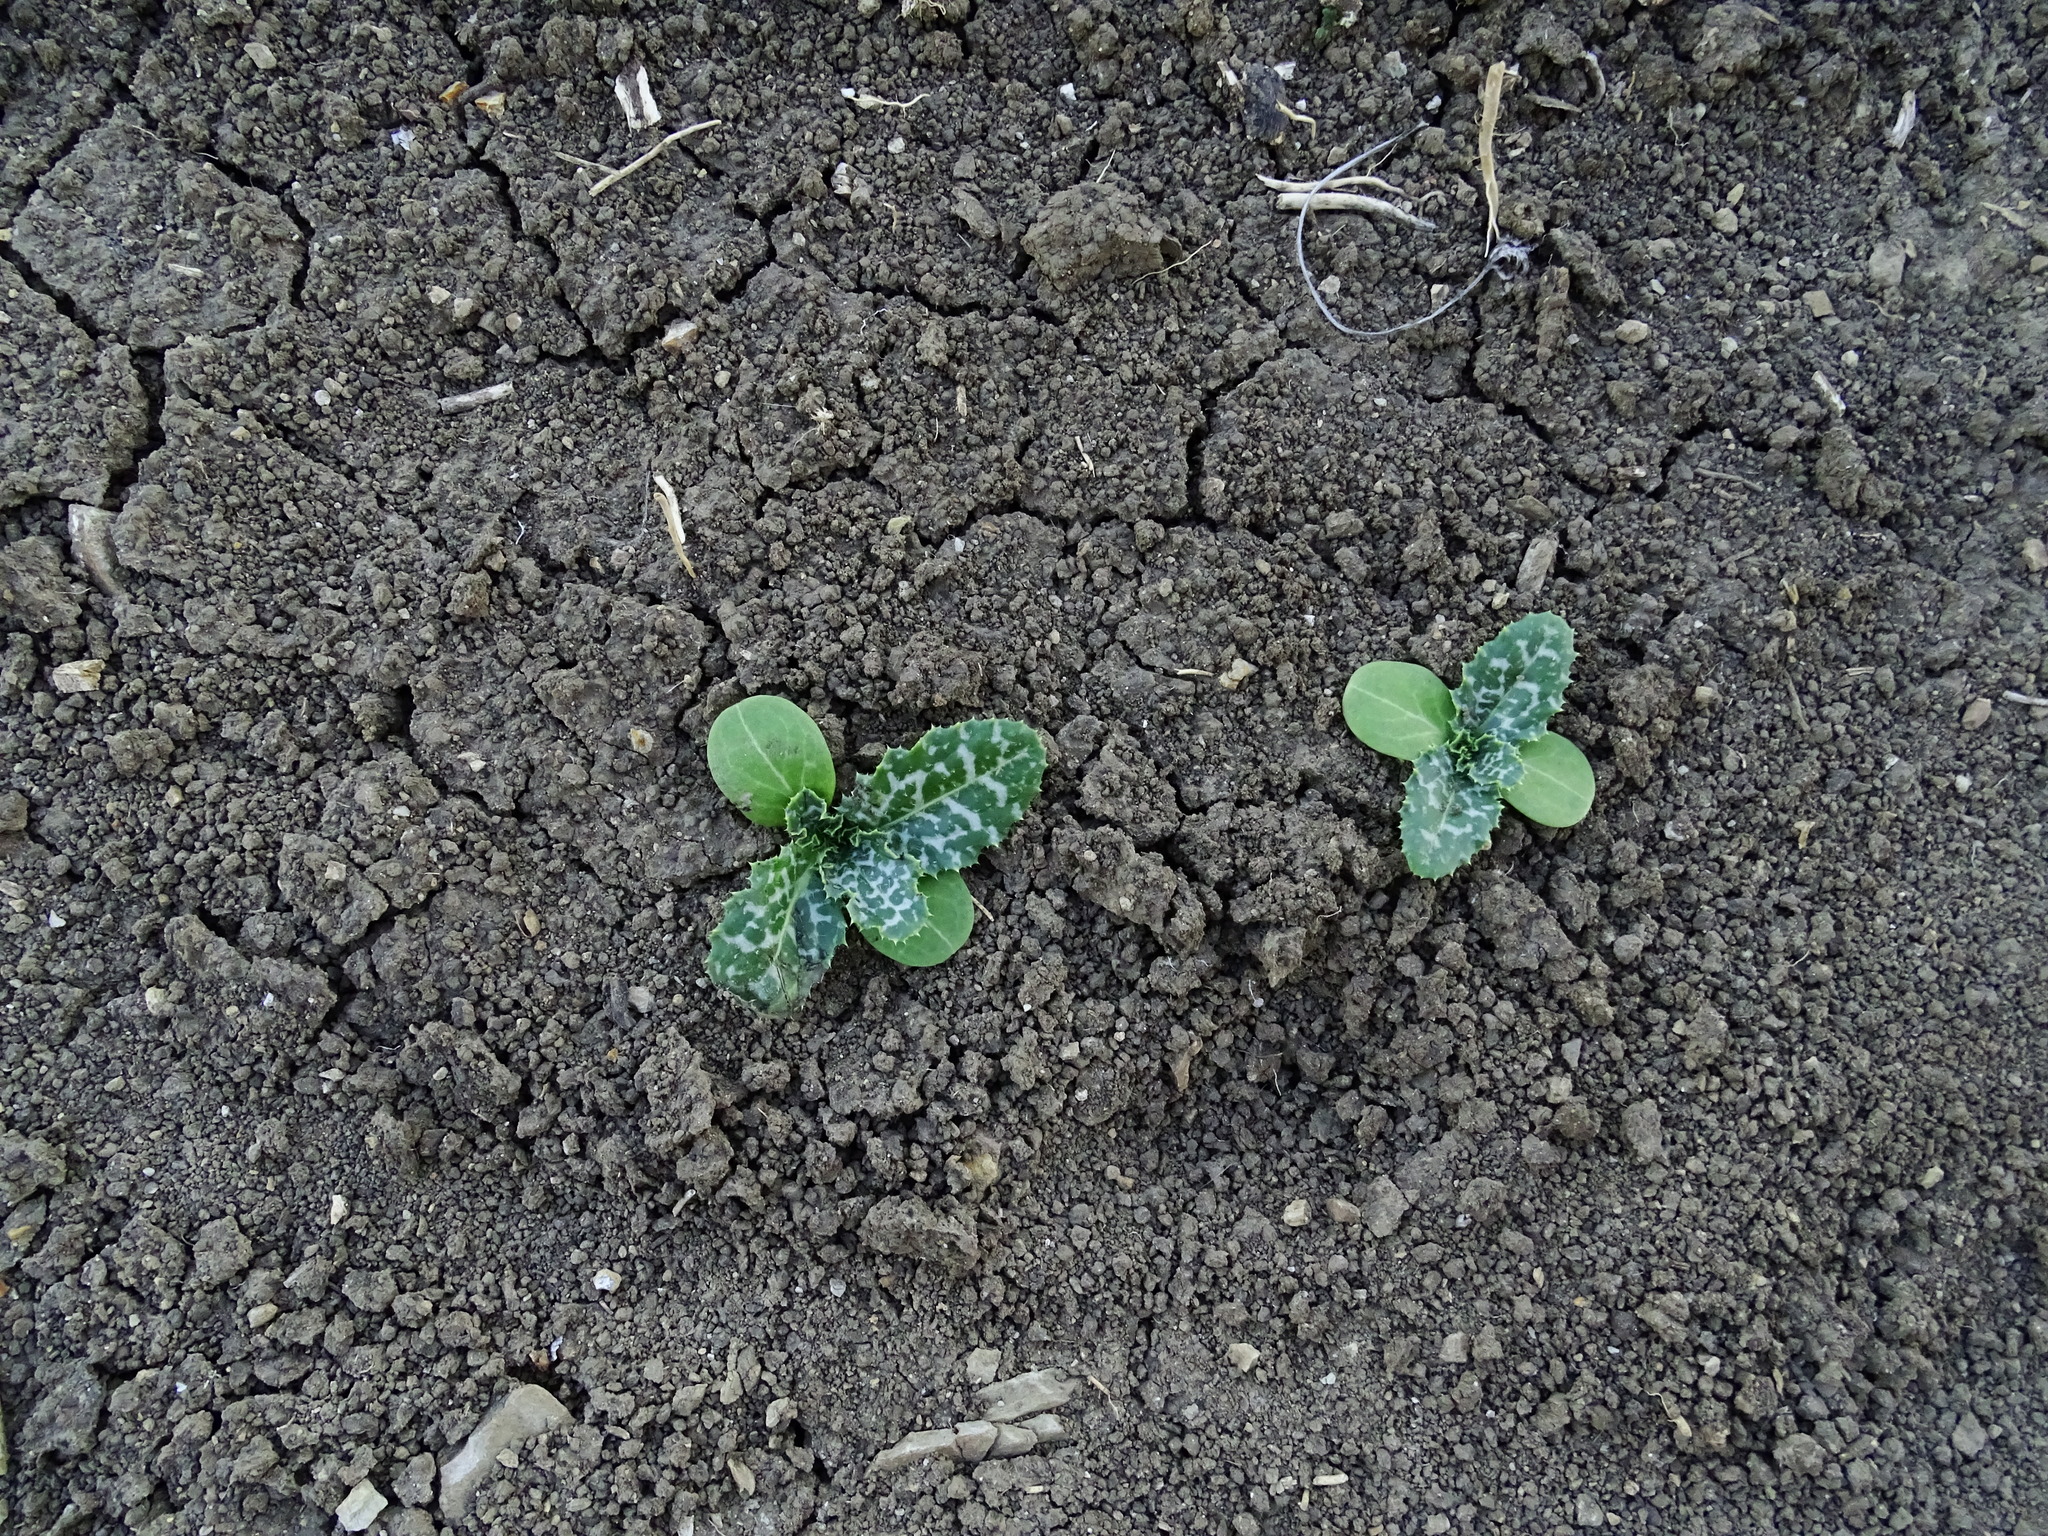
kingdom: Plantae
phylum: Tracheophyta
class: Magnoliopsida
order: Asterales
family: Asteraceae
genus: Silybum
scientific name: Silybum marianum
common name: Milk thistle
